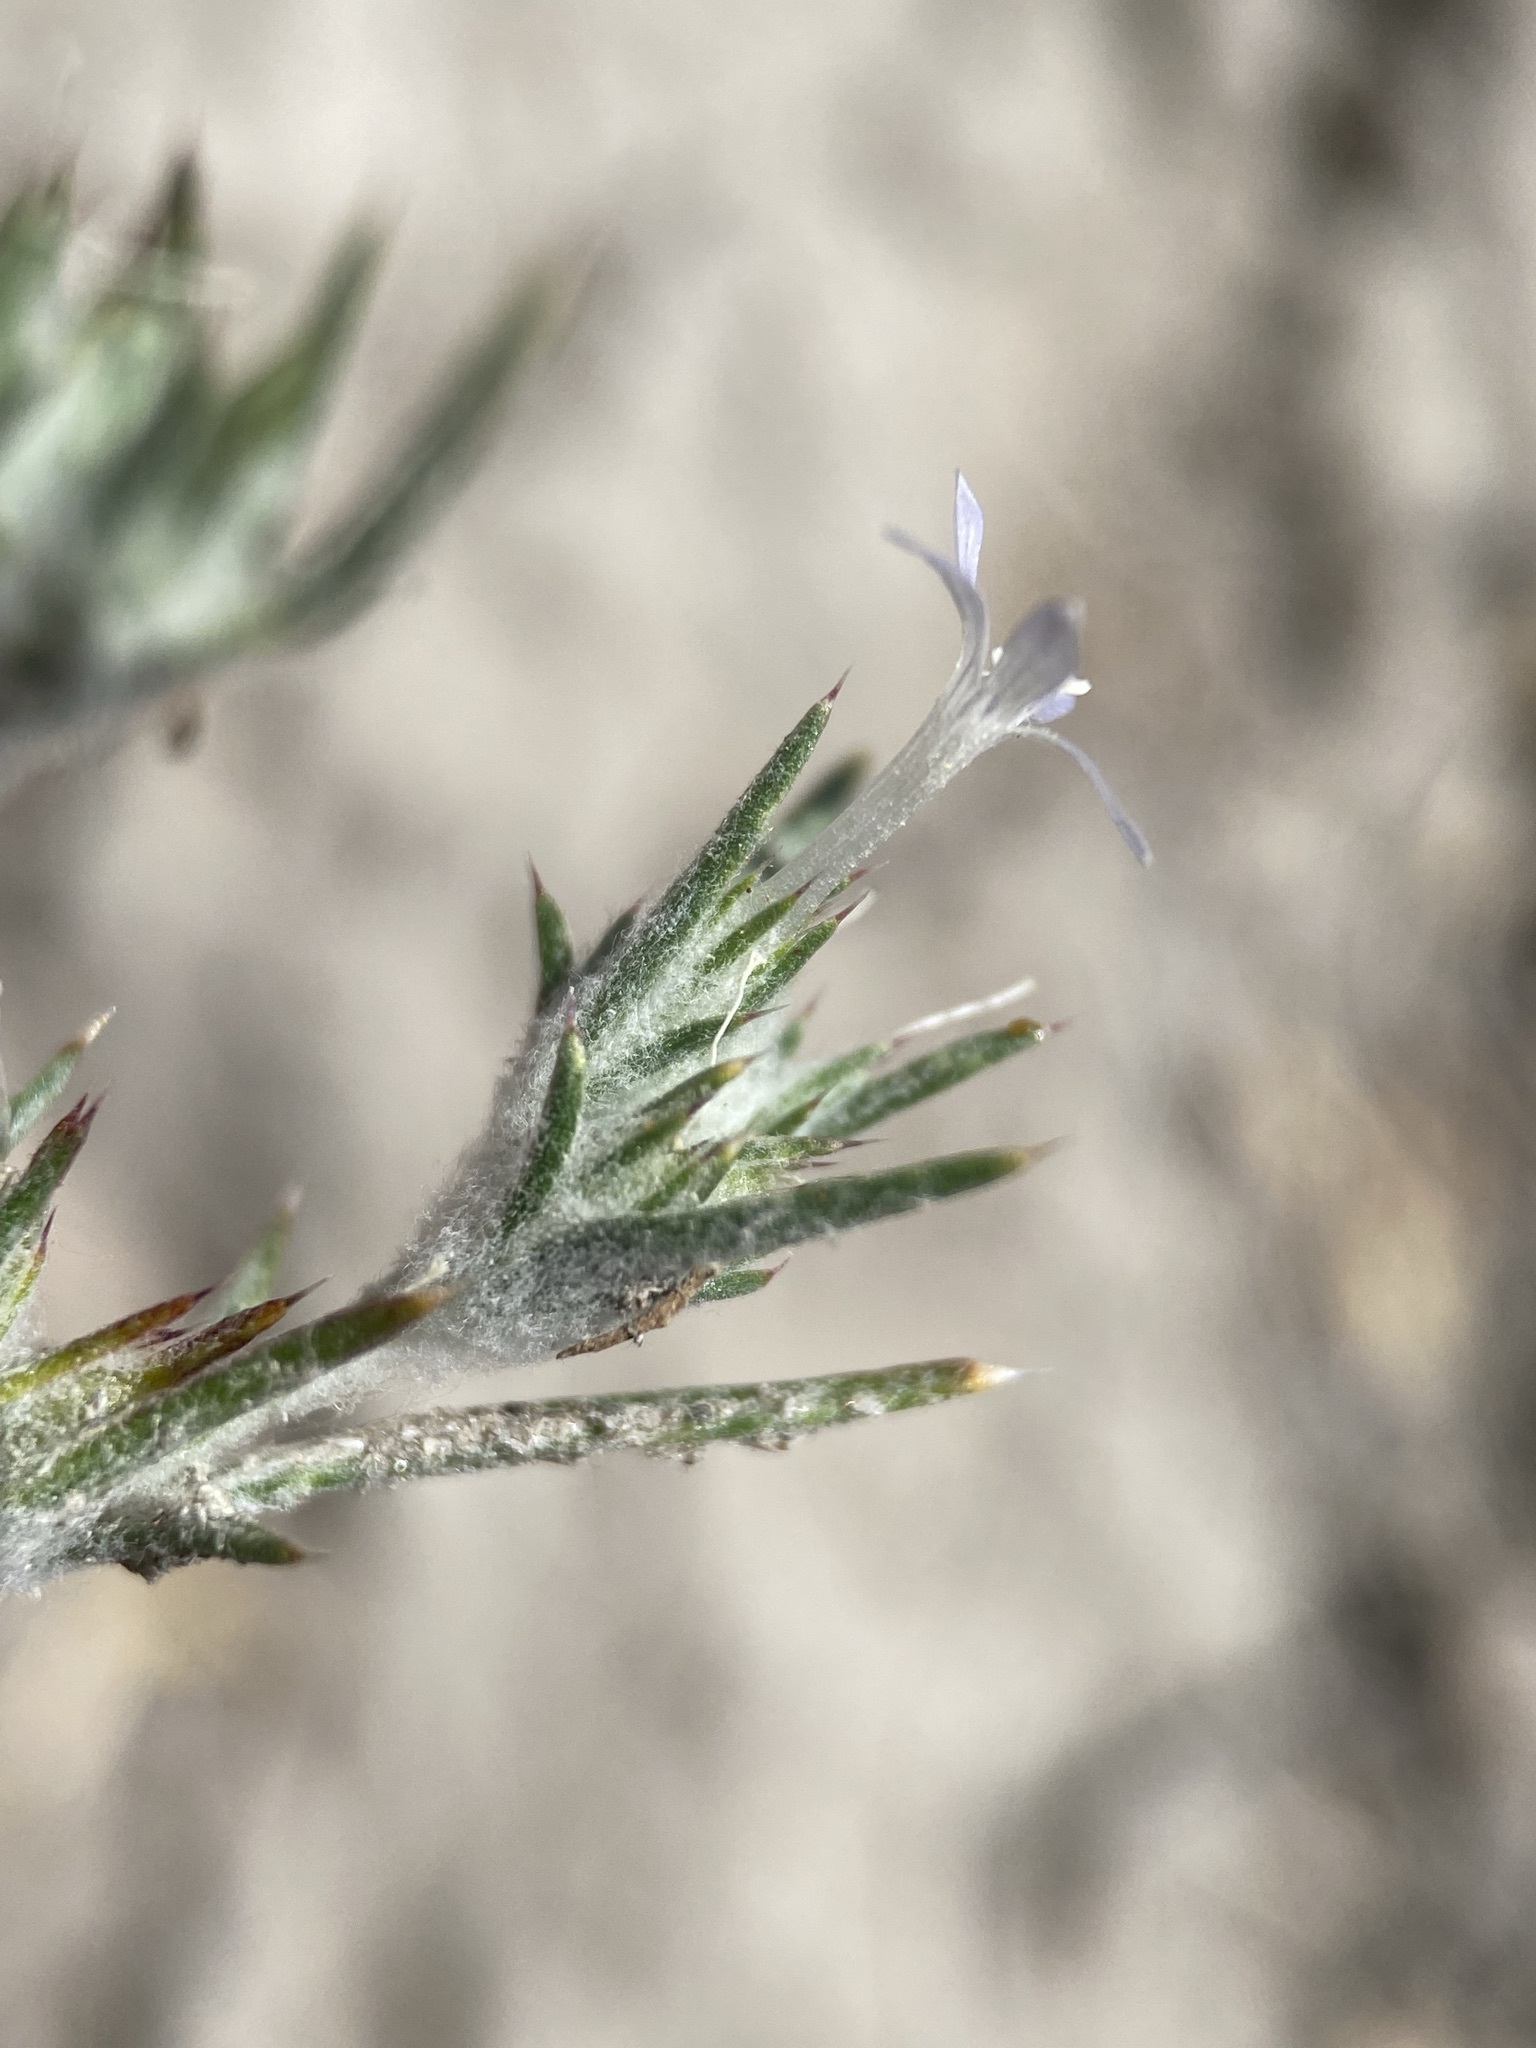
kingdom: Plantae
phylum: Tracheophyta
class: Magnoliopsida
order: Ericales
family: Polemoniaceae
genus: Eriastrum
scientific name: Eriastrum wilcoxii
